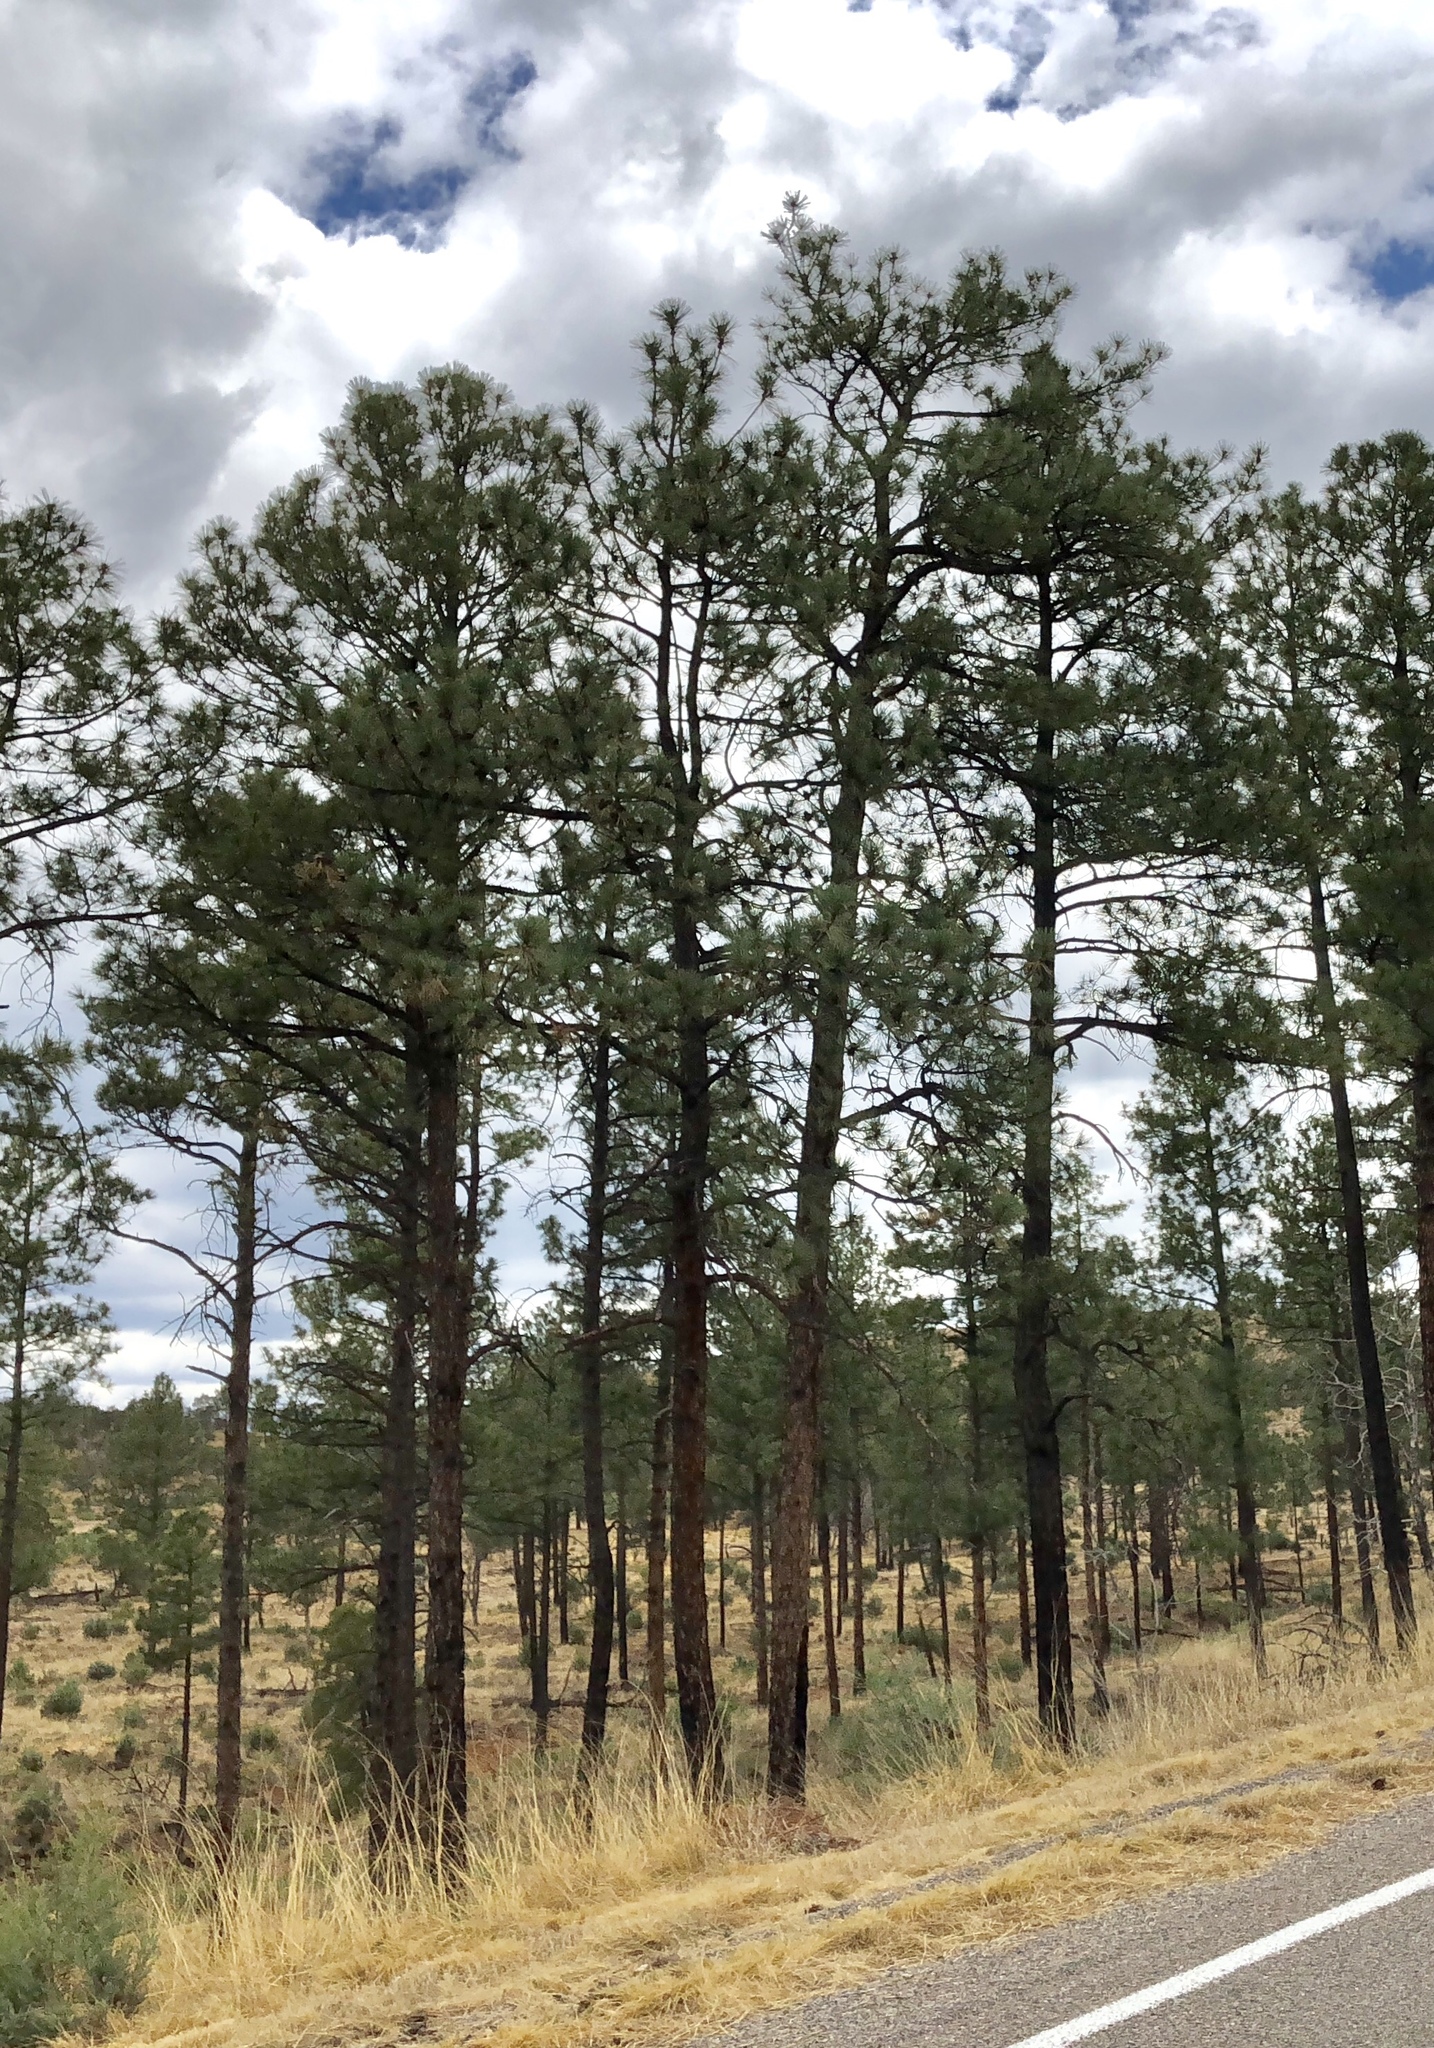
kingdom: Plantae
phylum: Tracheophyta
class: Pinopsida
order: Pinales
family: Pinaceae
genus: Pinus
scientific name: Pinus ponderosa
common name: Western yellow-pine
